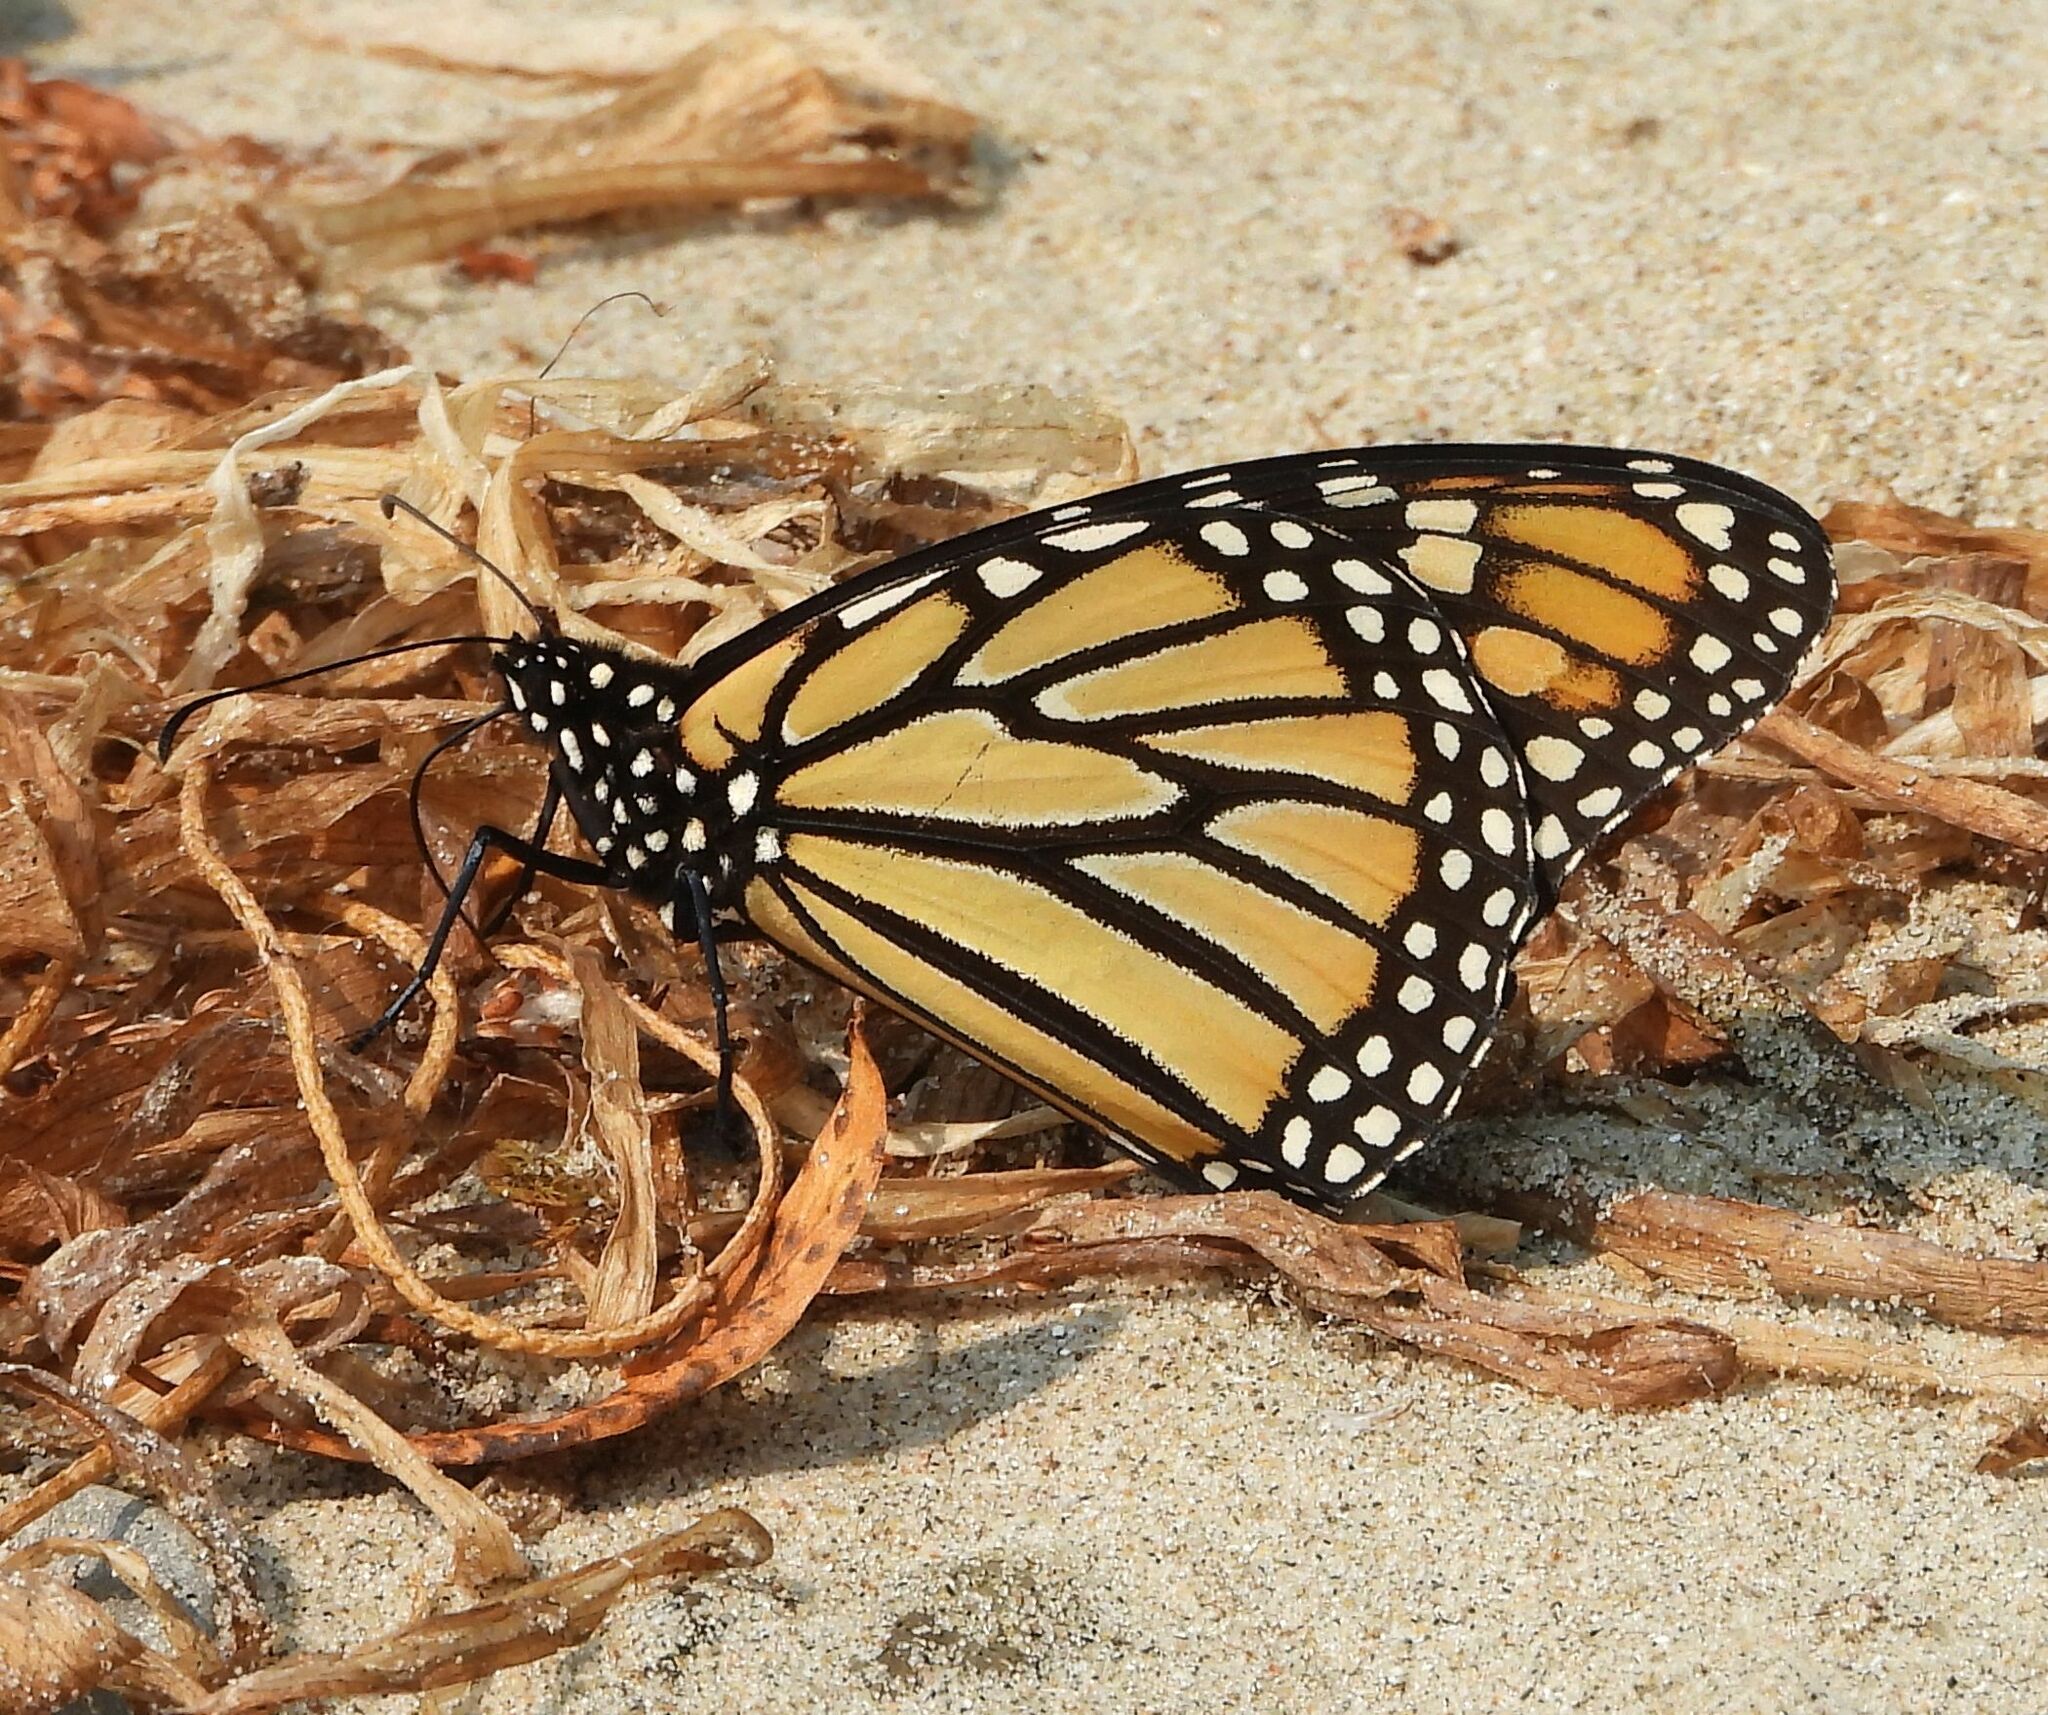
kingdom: Animalia
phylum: Arthropoda
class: Insecta
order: Lepidoptera
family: Nymphalidae
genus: Danaus
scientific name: Danaus plexippus
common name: Monarch
